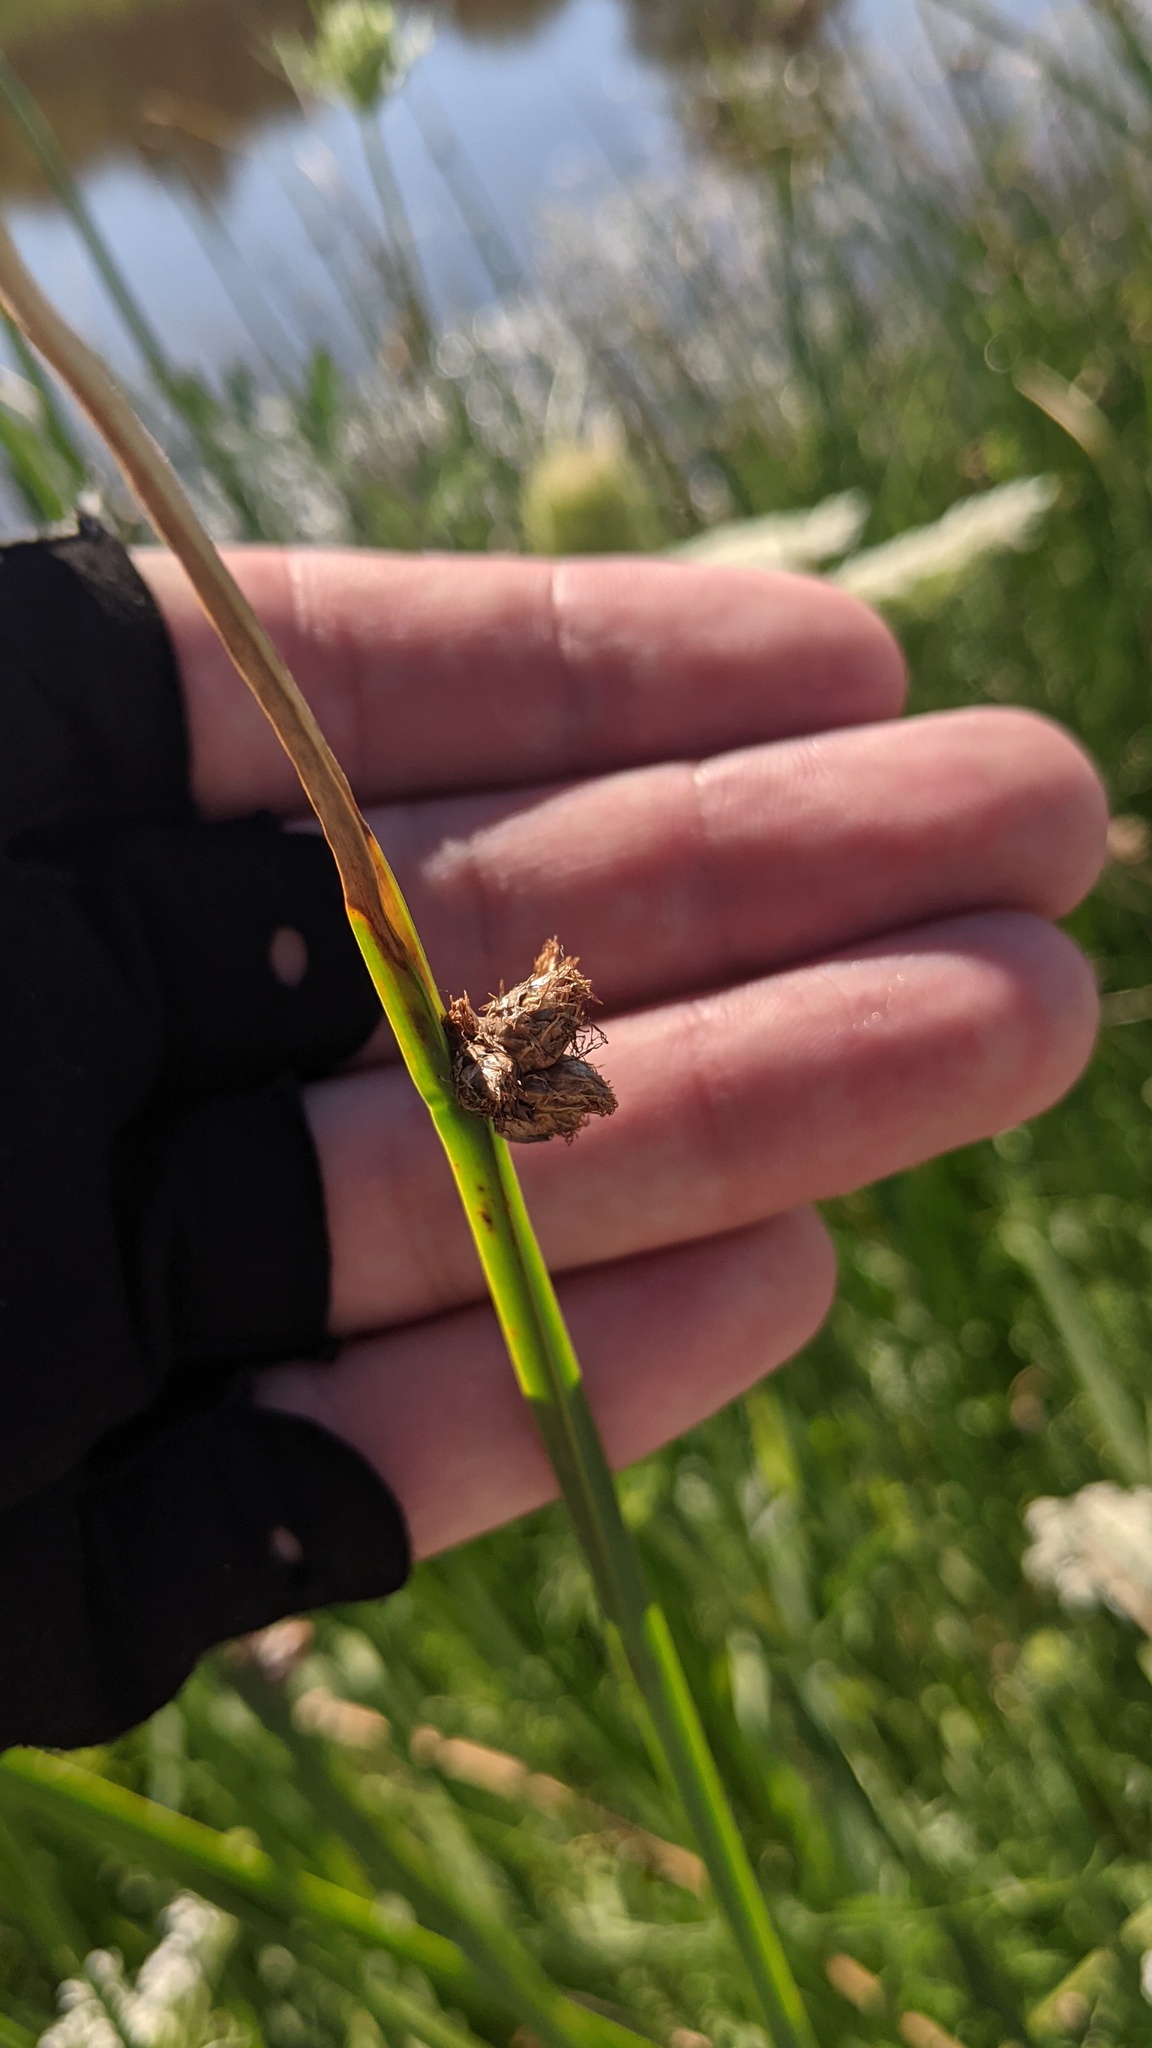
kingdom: Plantae
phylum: Tracheophyta
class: Liliopsida
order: Poales
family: Cyperaceae
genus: Schoenoplectus
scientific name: Schoenoplectus pungens
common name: Sharp club-rush
